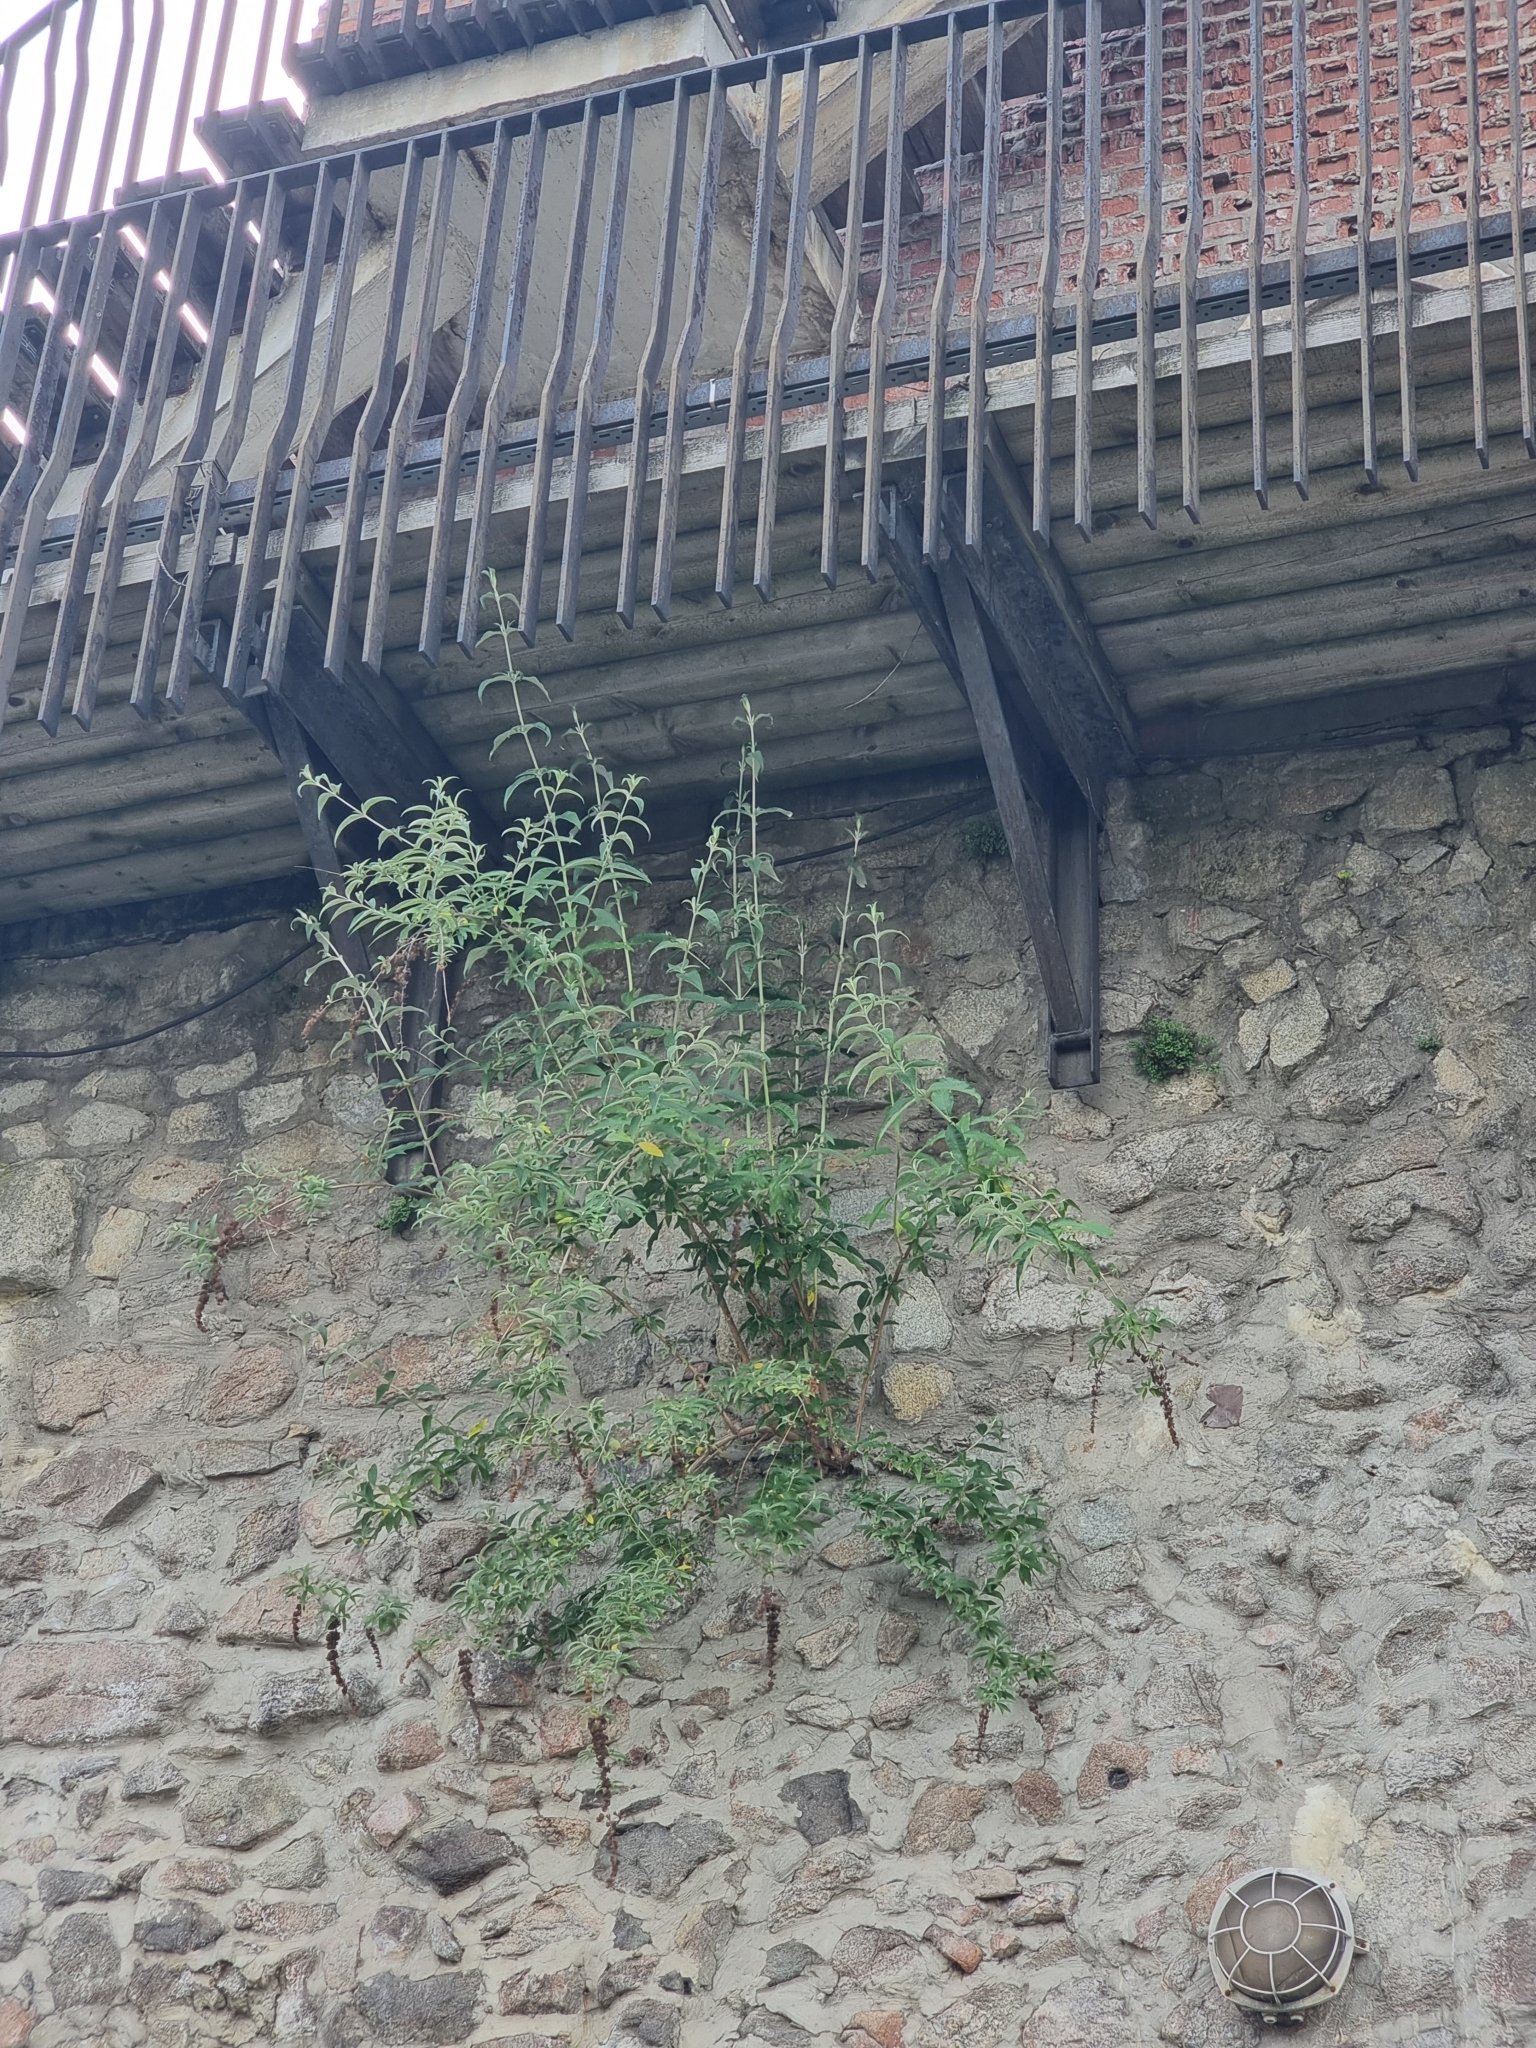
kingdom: Plantae
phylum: Tracheophyta
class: Magnoliopsida
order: Lamiales
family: Scrophulariaceae
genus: Buddleja
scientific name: Buddleja davidii
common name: Butterfly-bush
